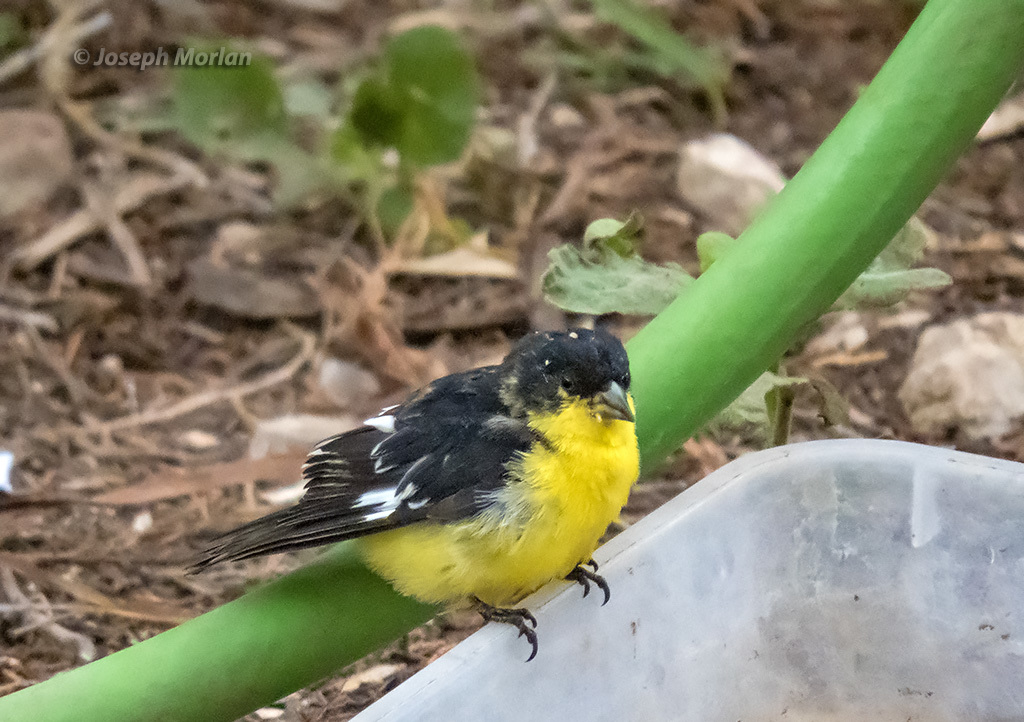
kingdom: Animalia
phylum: Chordata
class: Aves
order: Passeriformes
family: Fringillidae
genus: Spinus
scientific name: Spinus psaltria
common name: Lesser goldfinch
